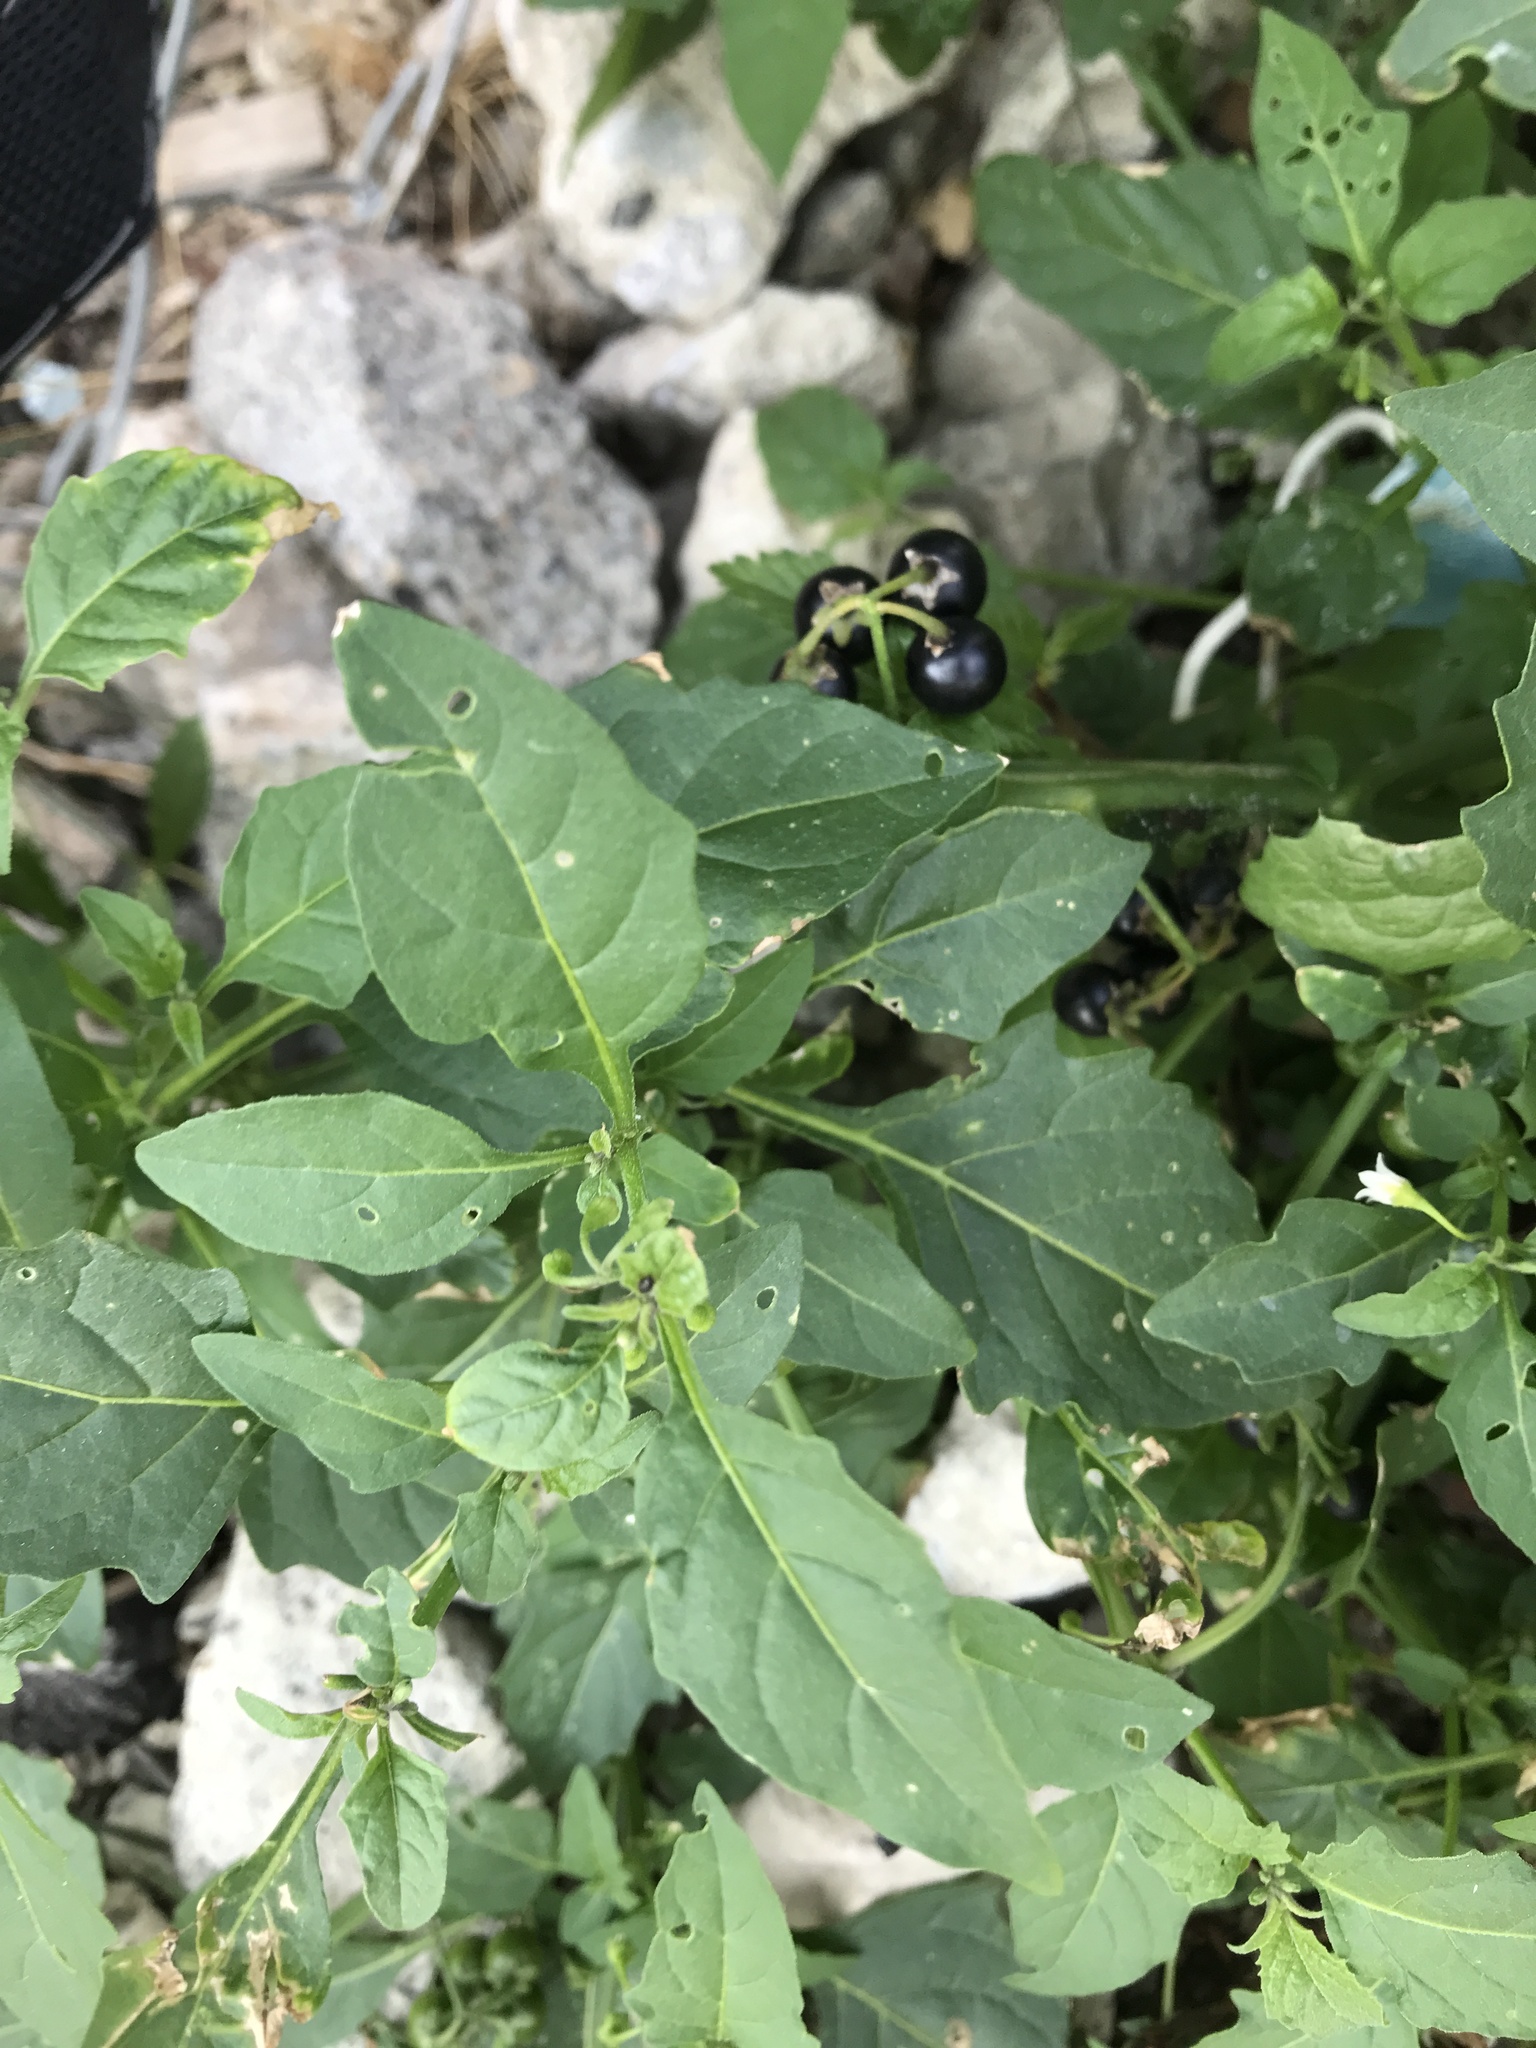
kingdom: Plantae
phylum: Tracheophyta
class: Magnoliopsida
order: Solanales
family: Solanaceae
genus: Solanum
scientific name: Solanum emulans
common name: Eastern black nightshade
